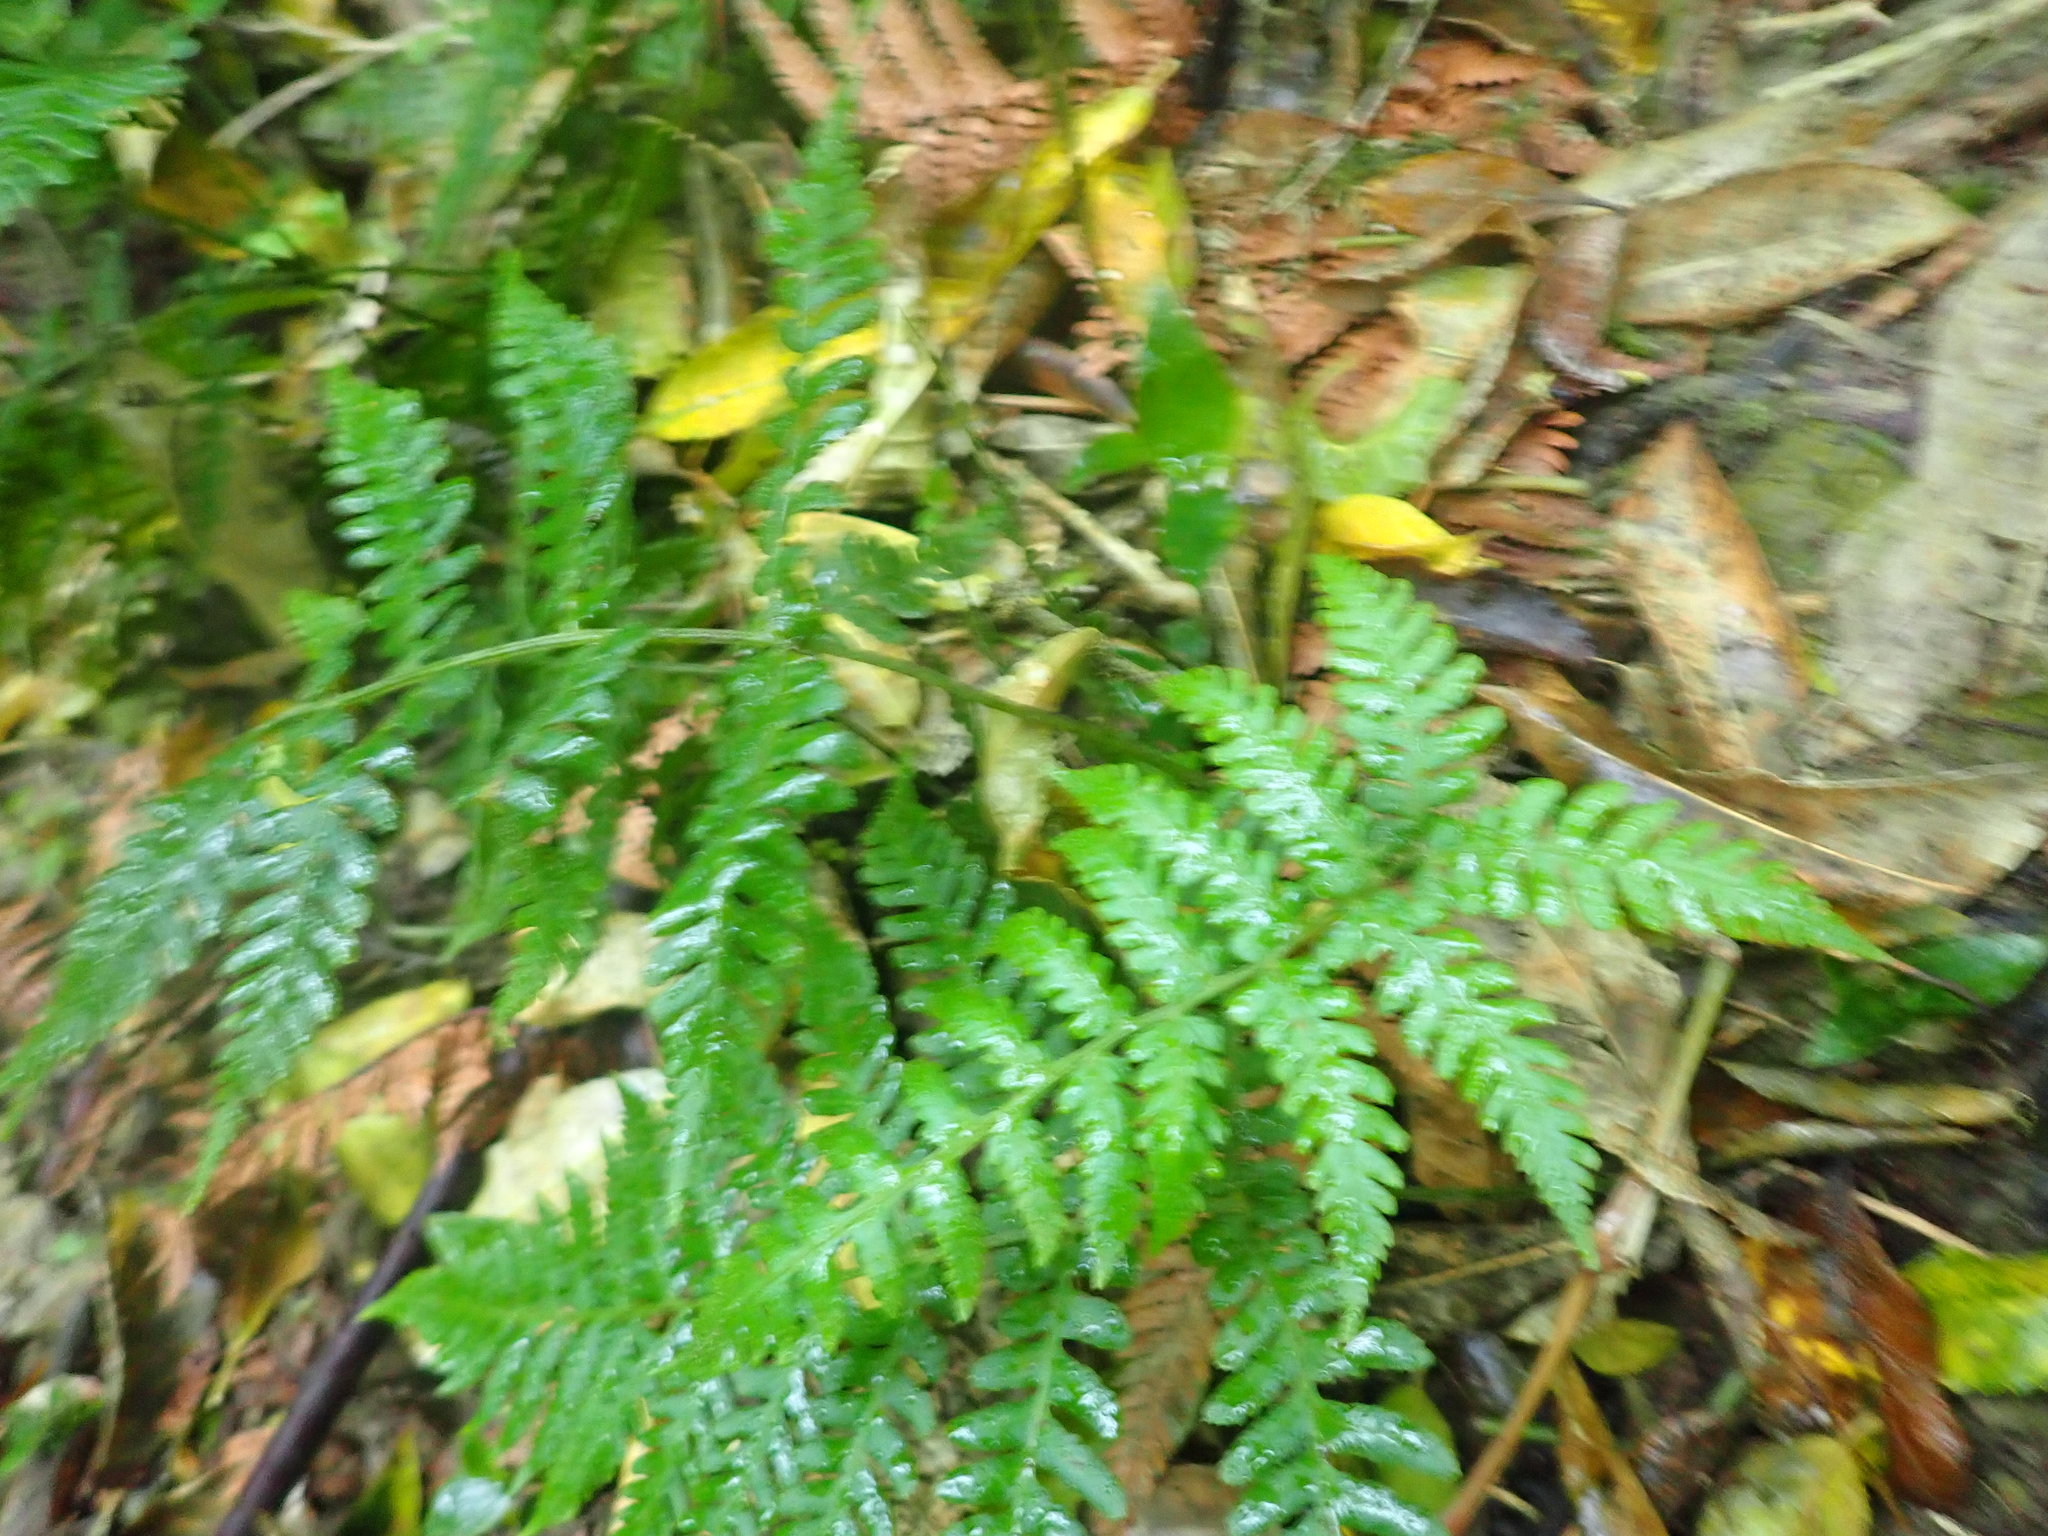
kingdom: Plantae
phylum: Tracheophyta
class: Polypodiopsida
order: Polypodiales
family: Athyriaceae
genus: Diplazium
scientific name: Diplazium congruum
